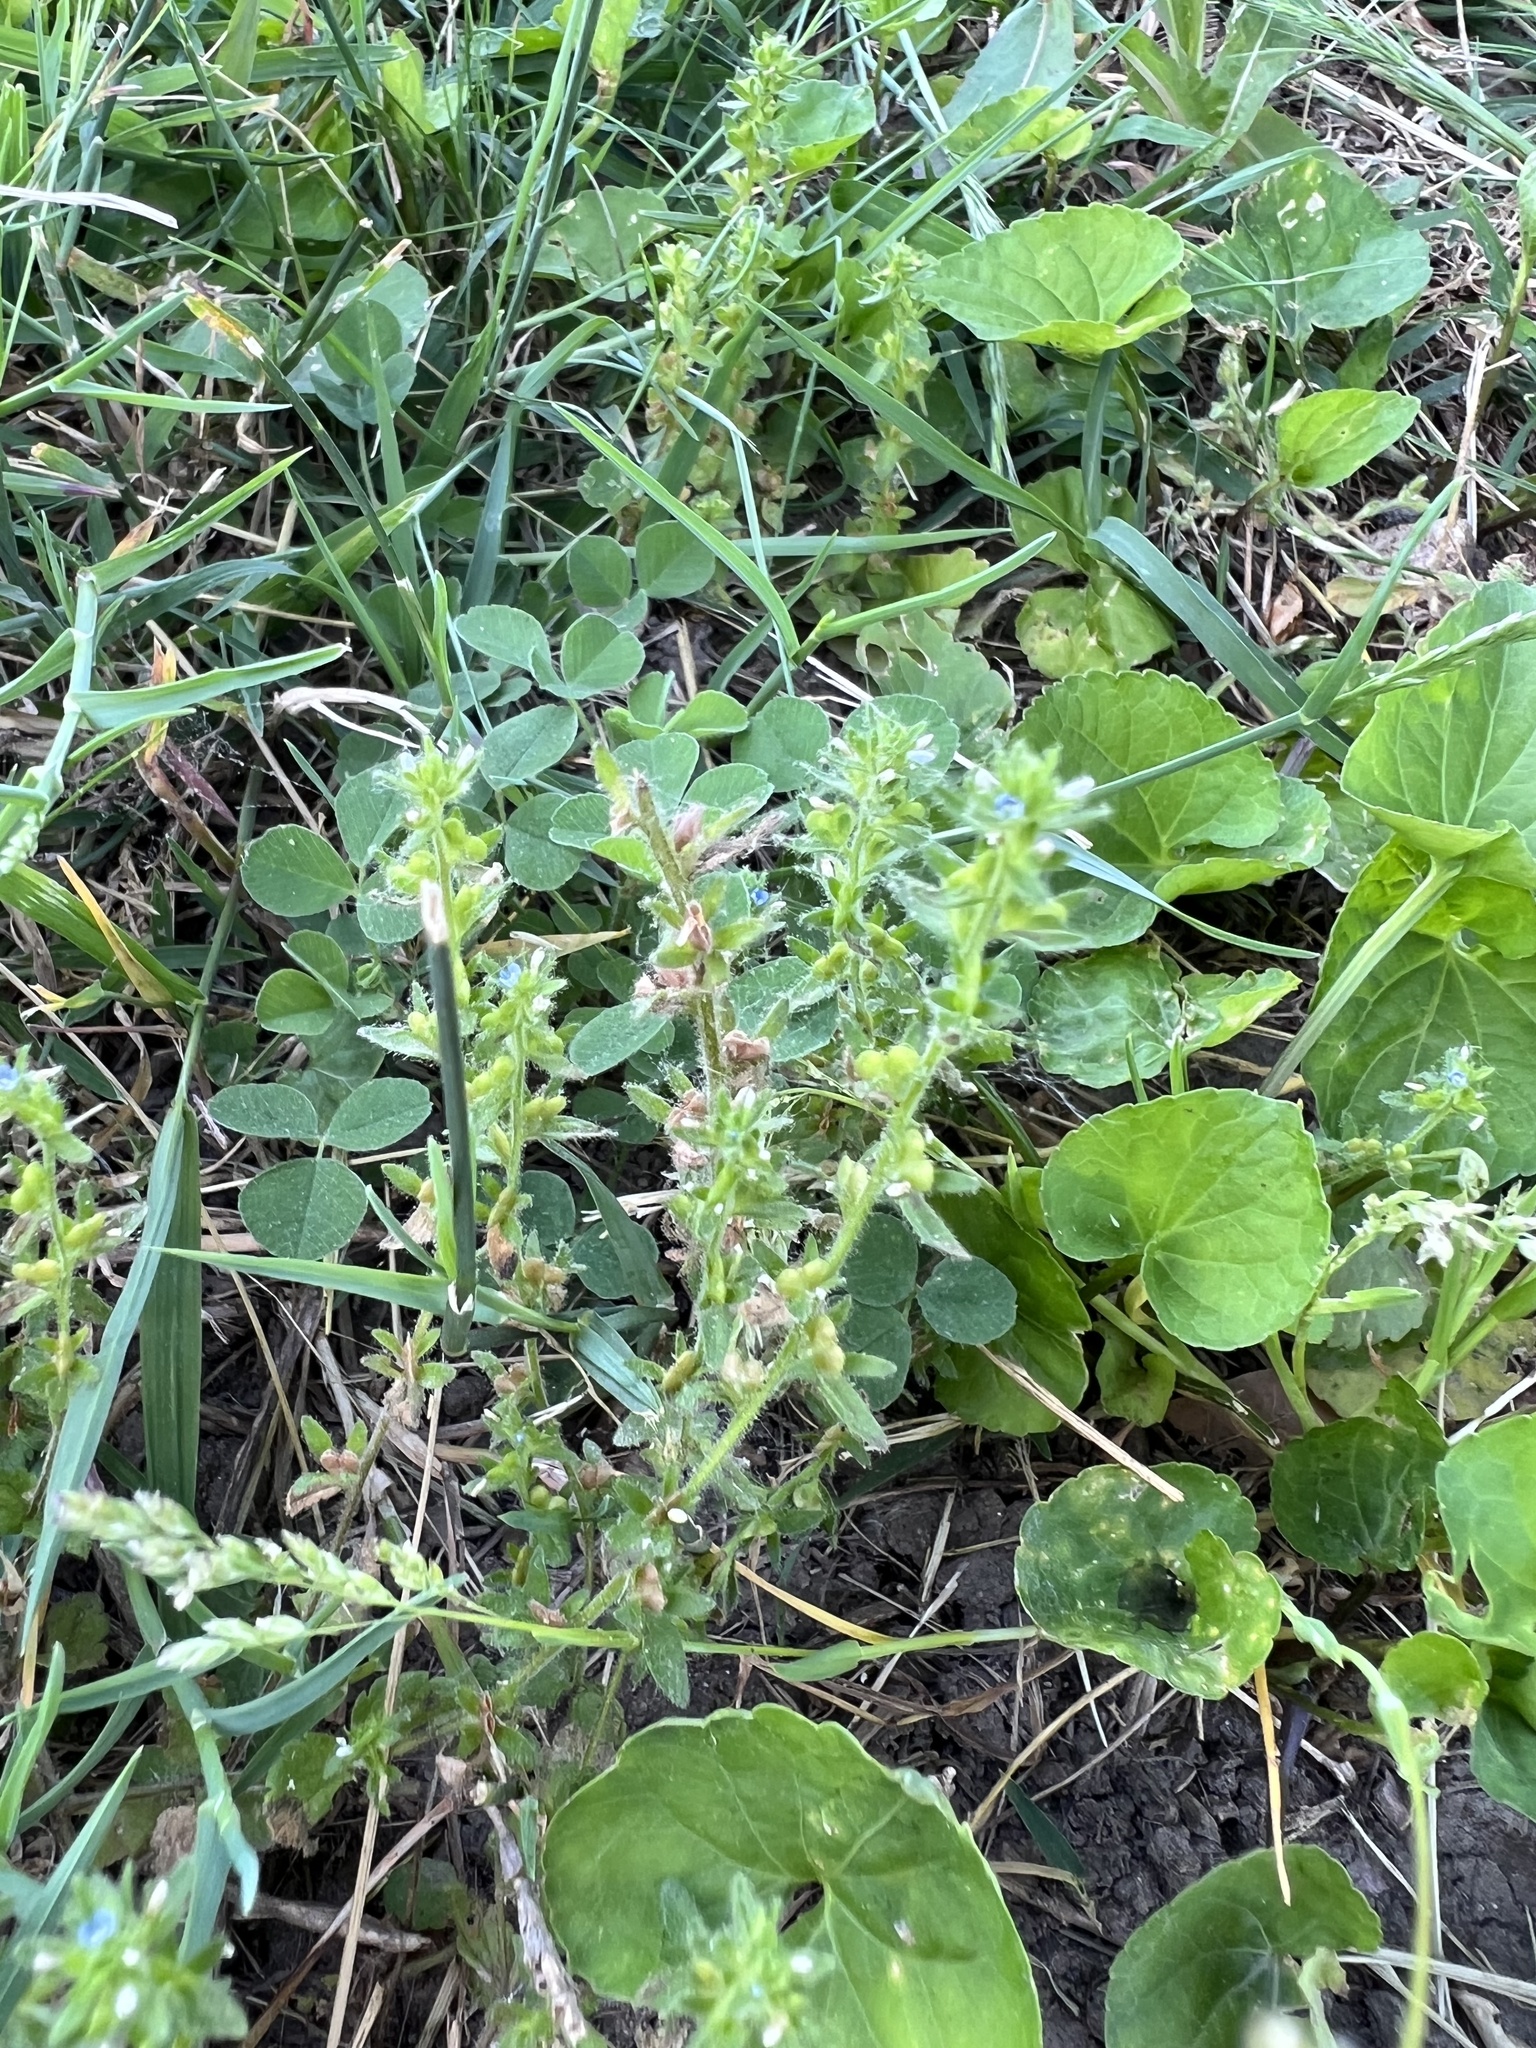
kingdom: Plantae
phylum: Tracheophyta
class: Magnoliopsida
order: Lamiales
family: Plantaginaceae
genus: Veronica
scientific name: Veronica arvensis
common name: Corn speedwell
